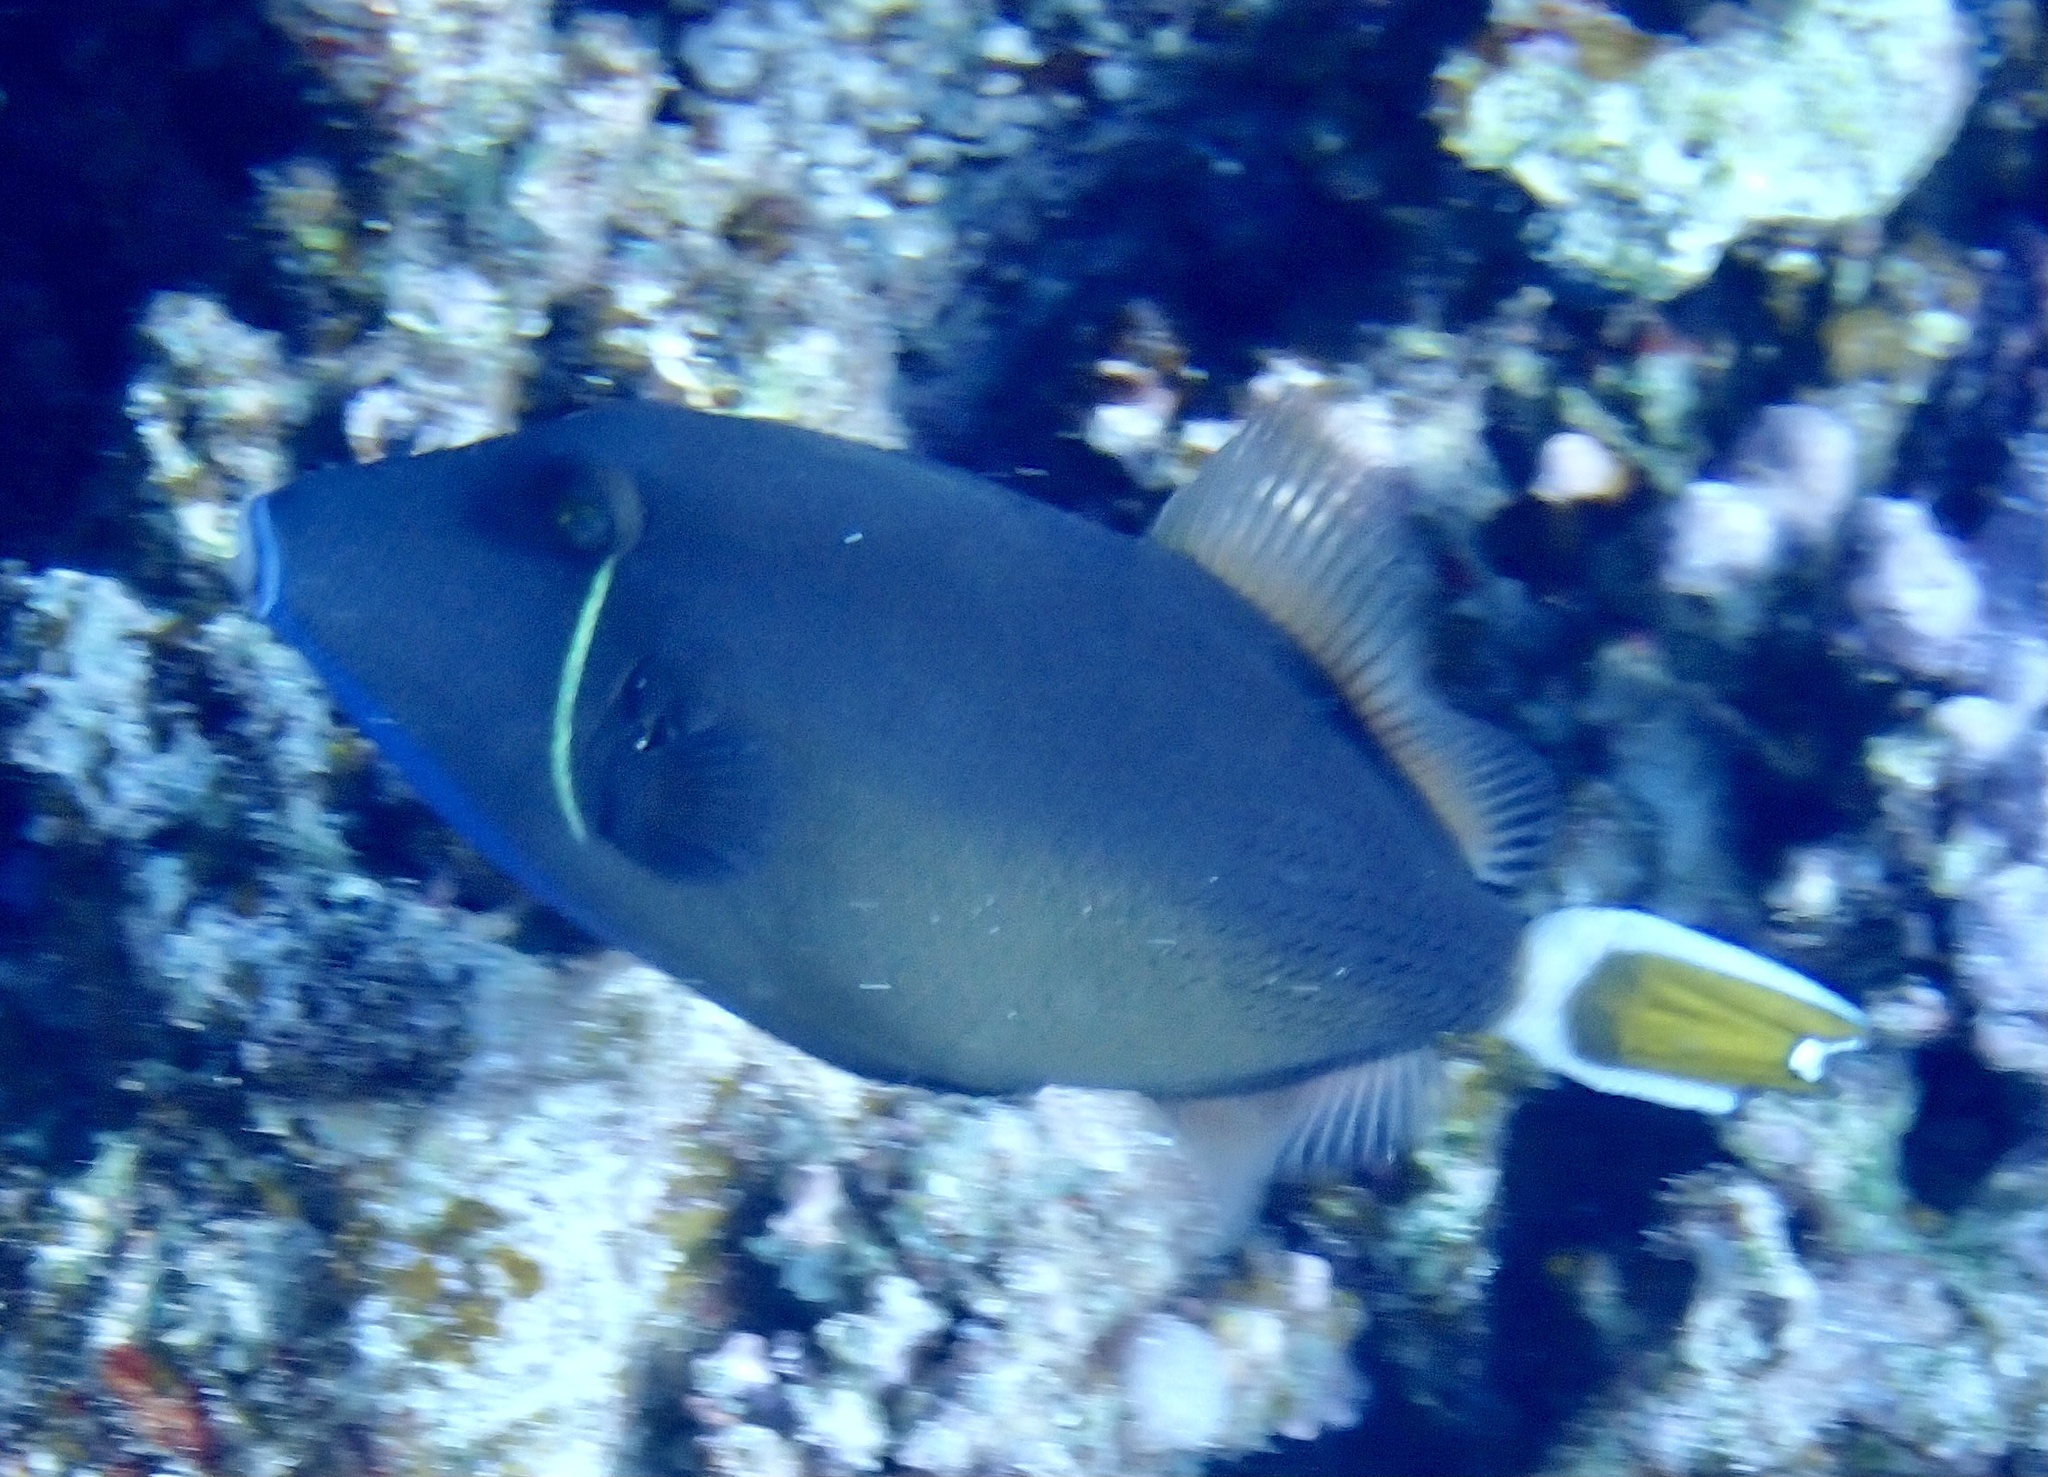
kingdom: Animalia
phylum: Chordata
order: Tetraodontiformes
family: Balistidae
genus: Sufflamen
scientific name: Sufflamen albicaudatum
